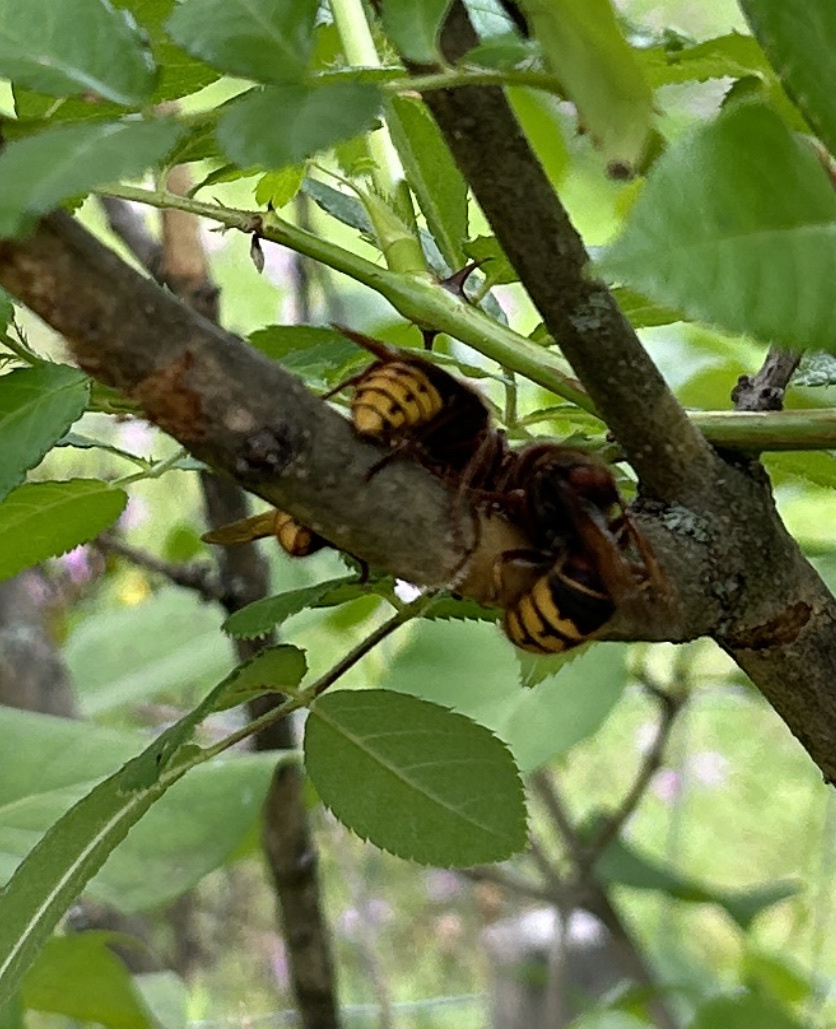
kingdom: Animalia
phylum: Arthropoda
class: Insecta
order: Hymenoptera
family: Vespidae
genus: Vespa
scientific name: Vespa crabro
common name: Hornet
